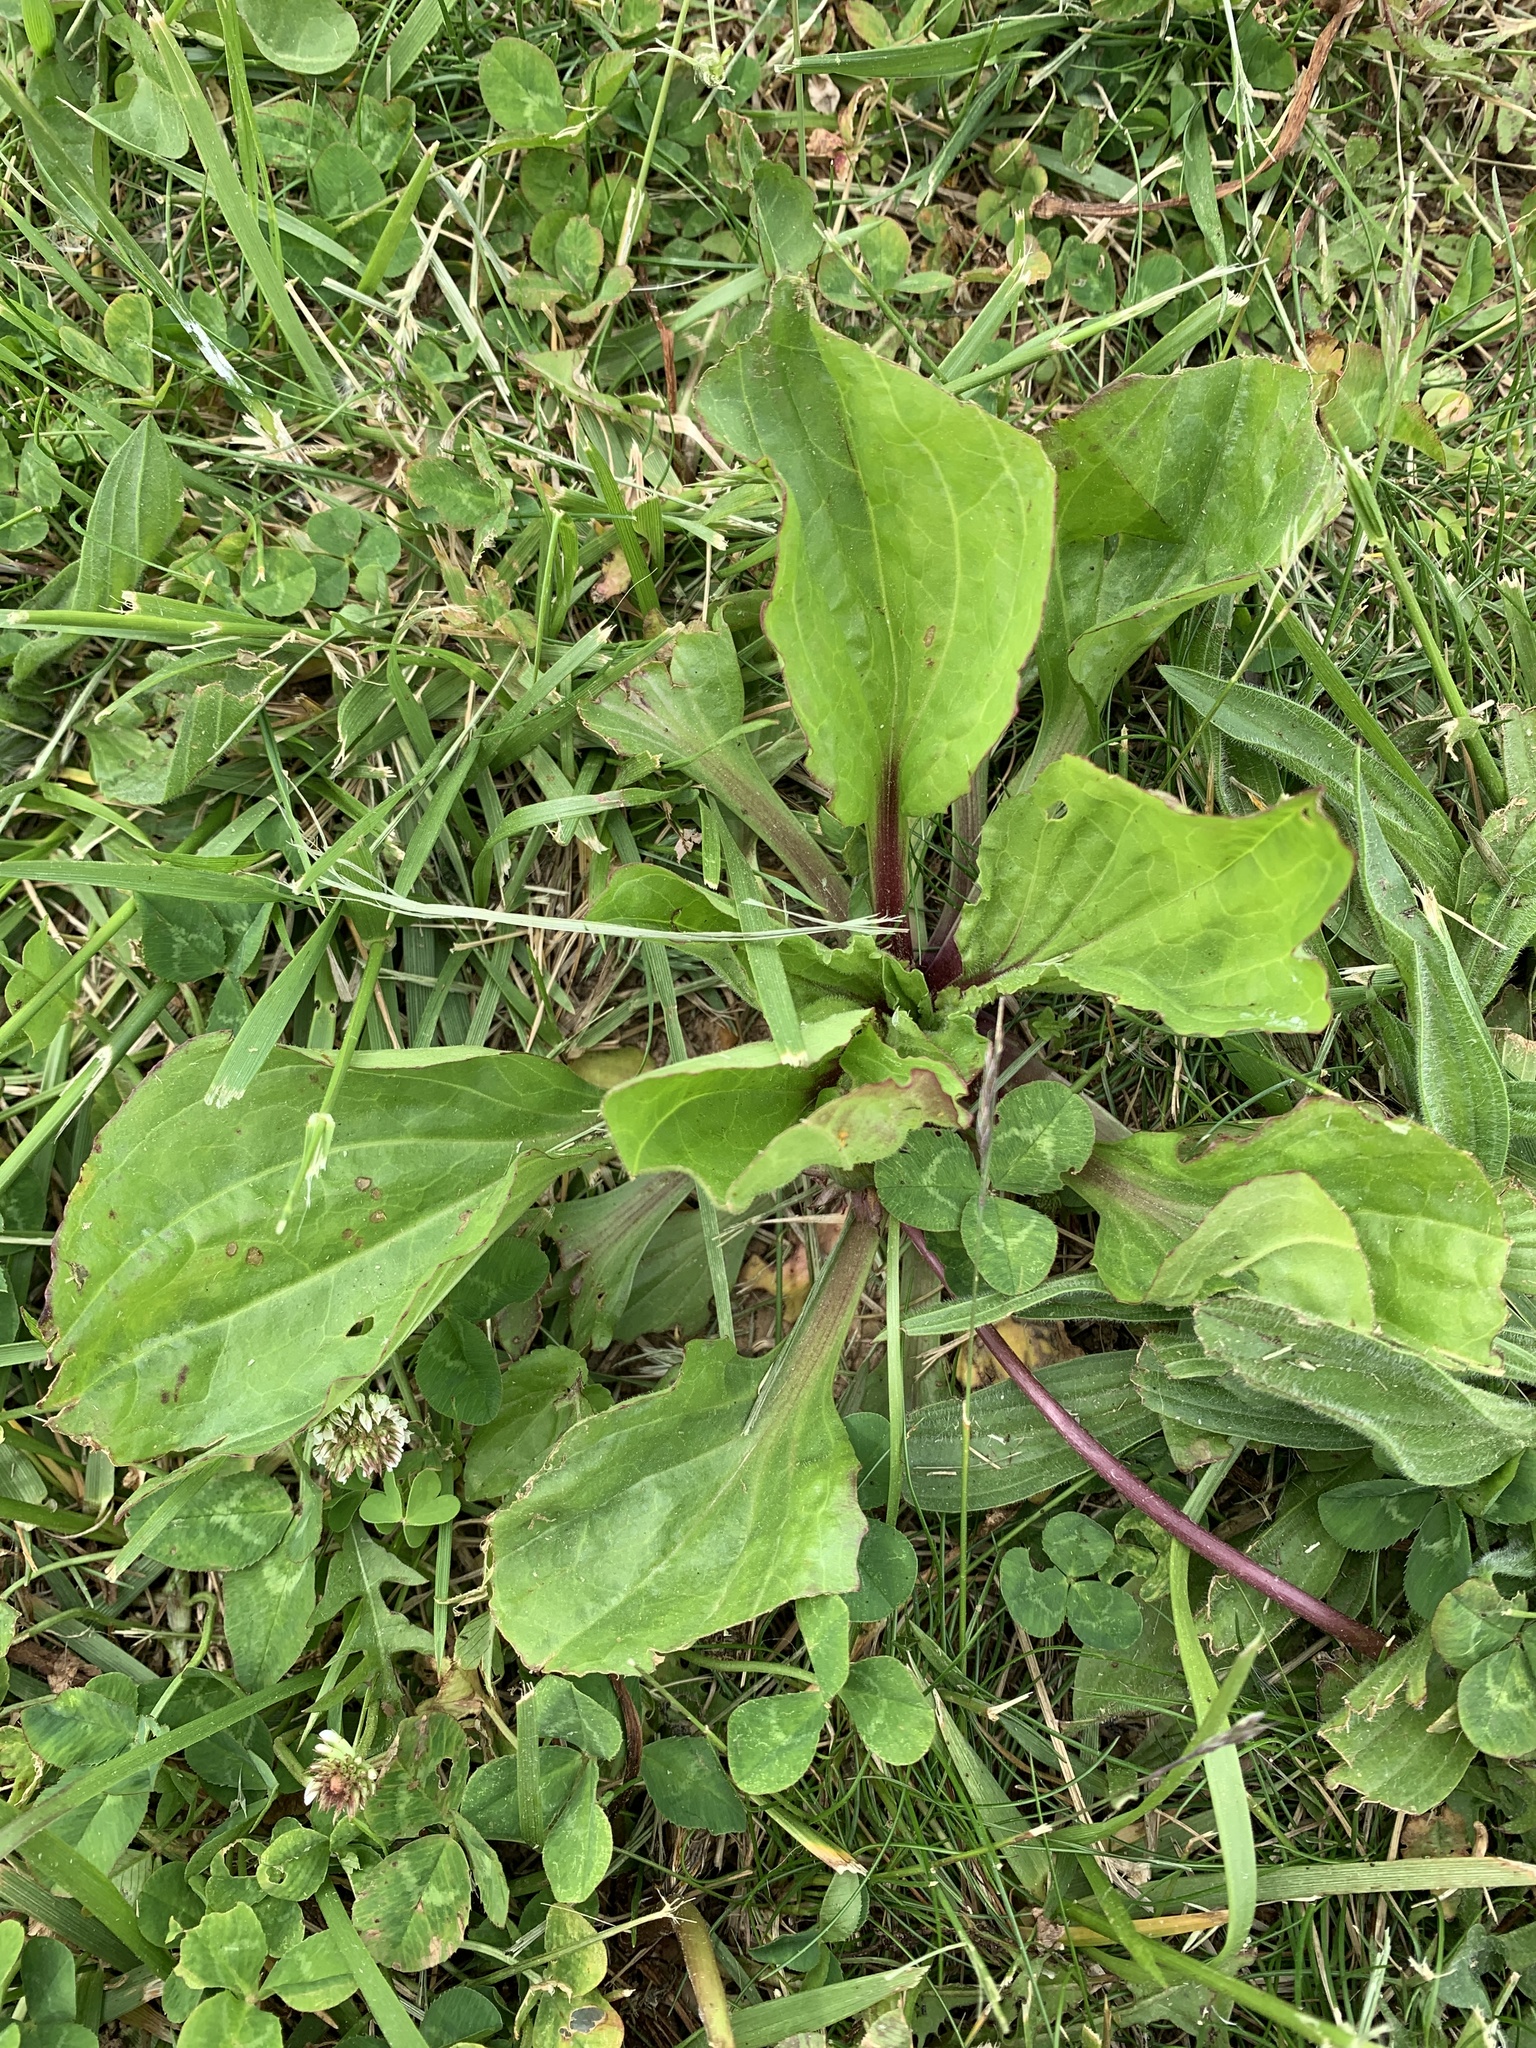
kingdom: Plantae
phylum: Tracheophyta
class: Magnoliopsida
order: Lamiales
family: Plantaginaceae
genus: Plantago
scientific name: Plantago rugelii
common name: American plantain
